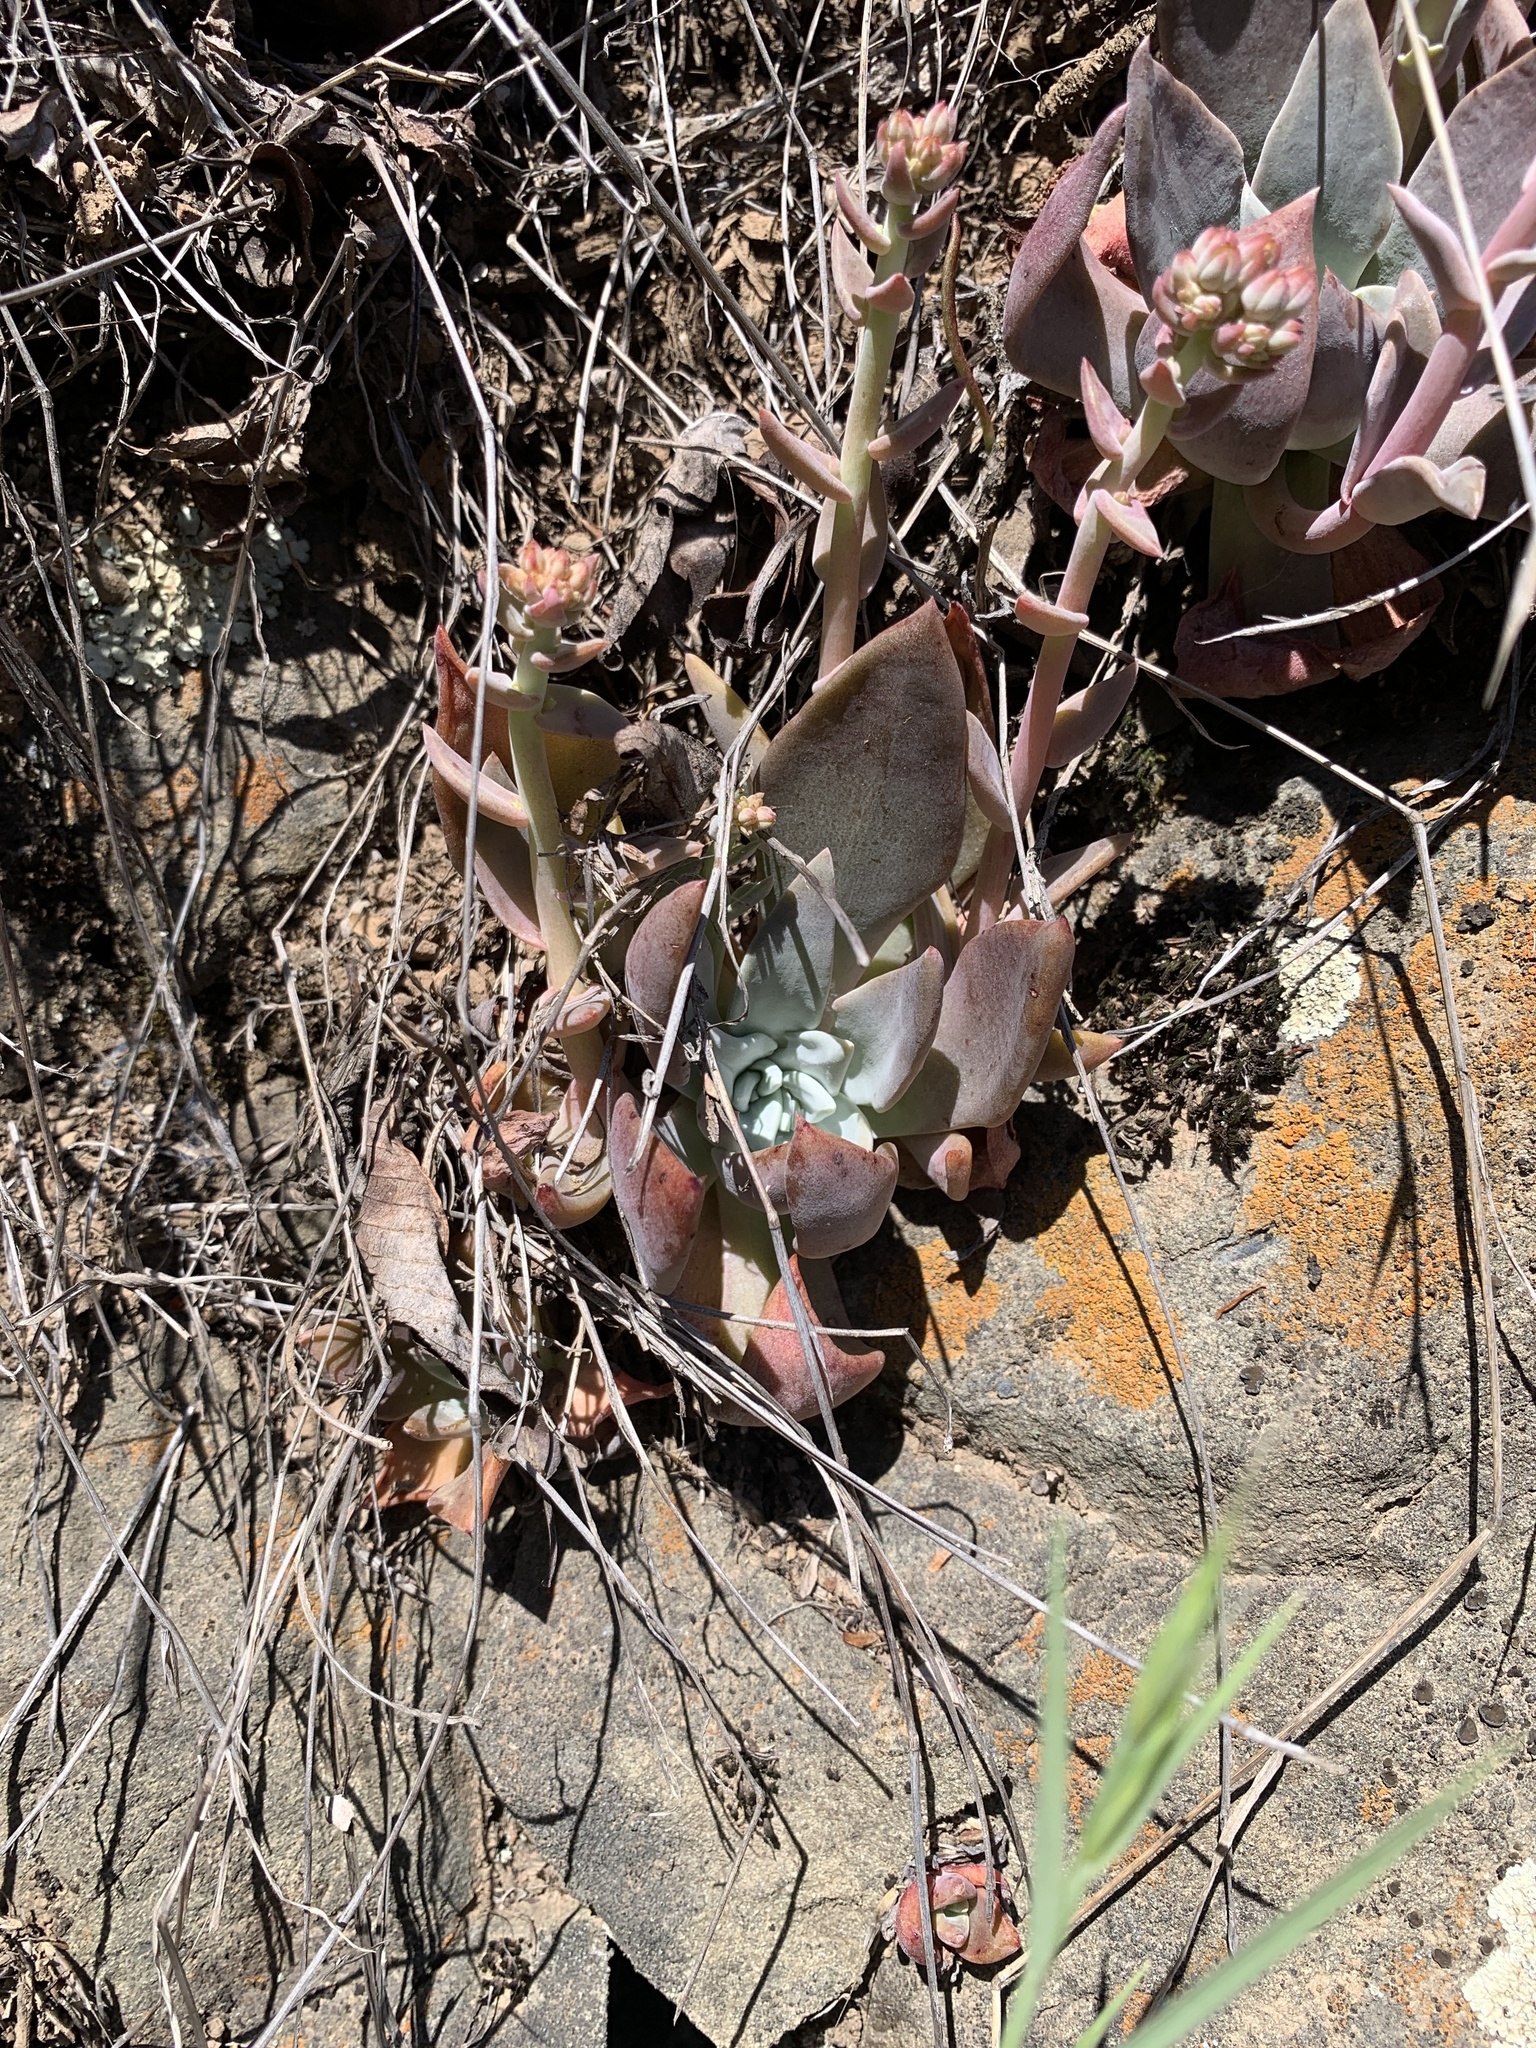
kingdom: Plantae
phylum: Tracheophyta
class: Magnoliopsida
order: Saxifragales
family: Crassulaceae
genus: Dudleya
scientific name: Dudleya cymosa
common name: Canyon dudleya
